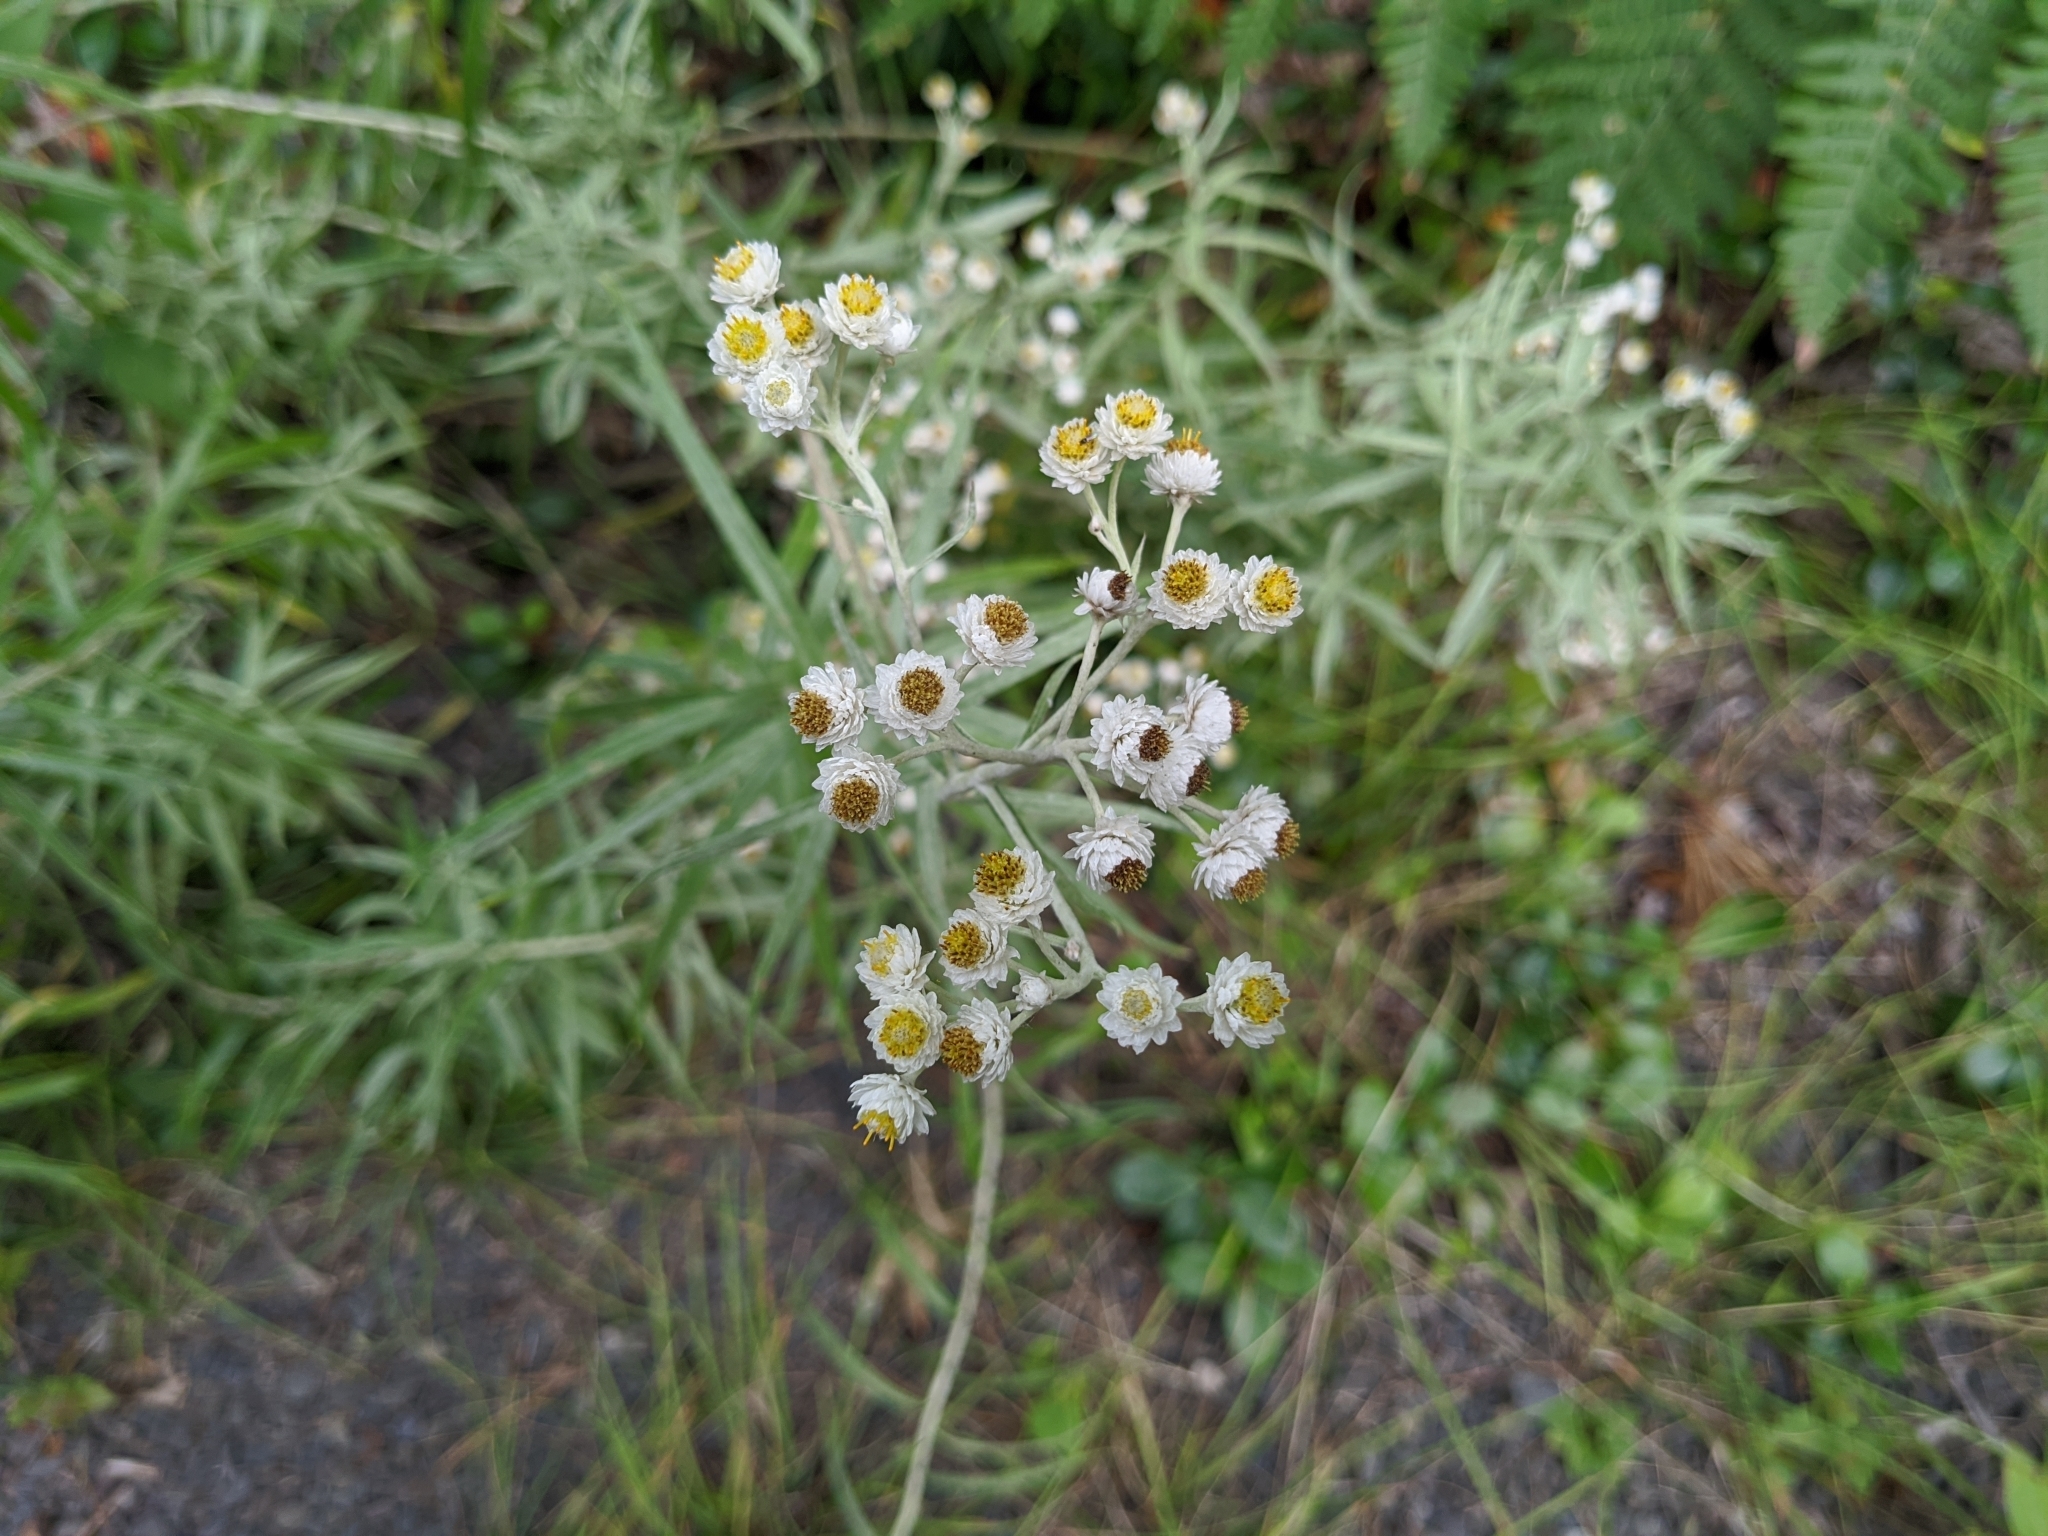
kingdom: Plantae
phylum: Tracheophyta
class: Magnoliopsida
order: Asterales
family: Asteraceae
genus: Anaphalis
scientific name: Anaphalis margaritacea
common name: Pearly everlasting
